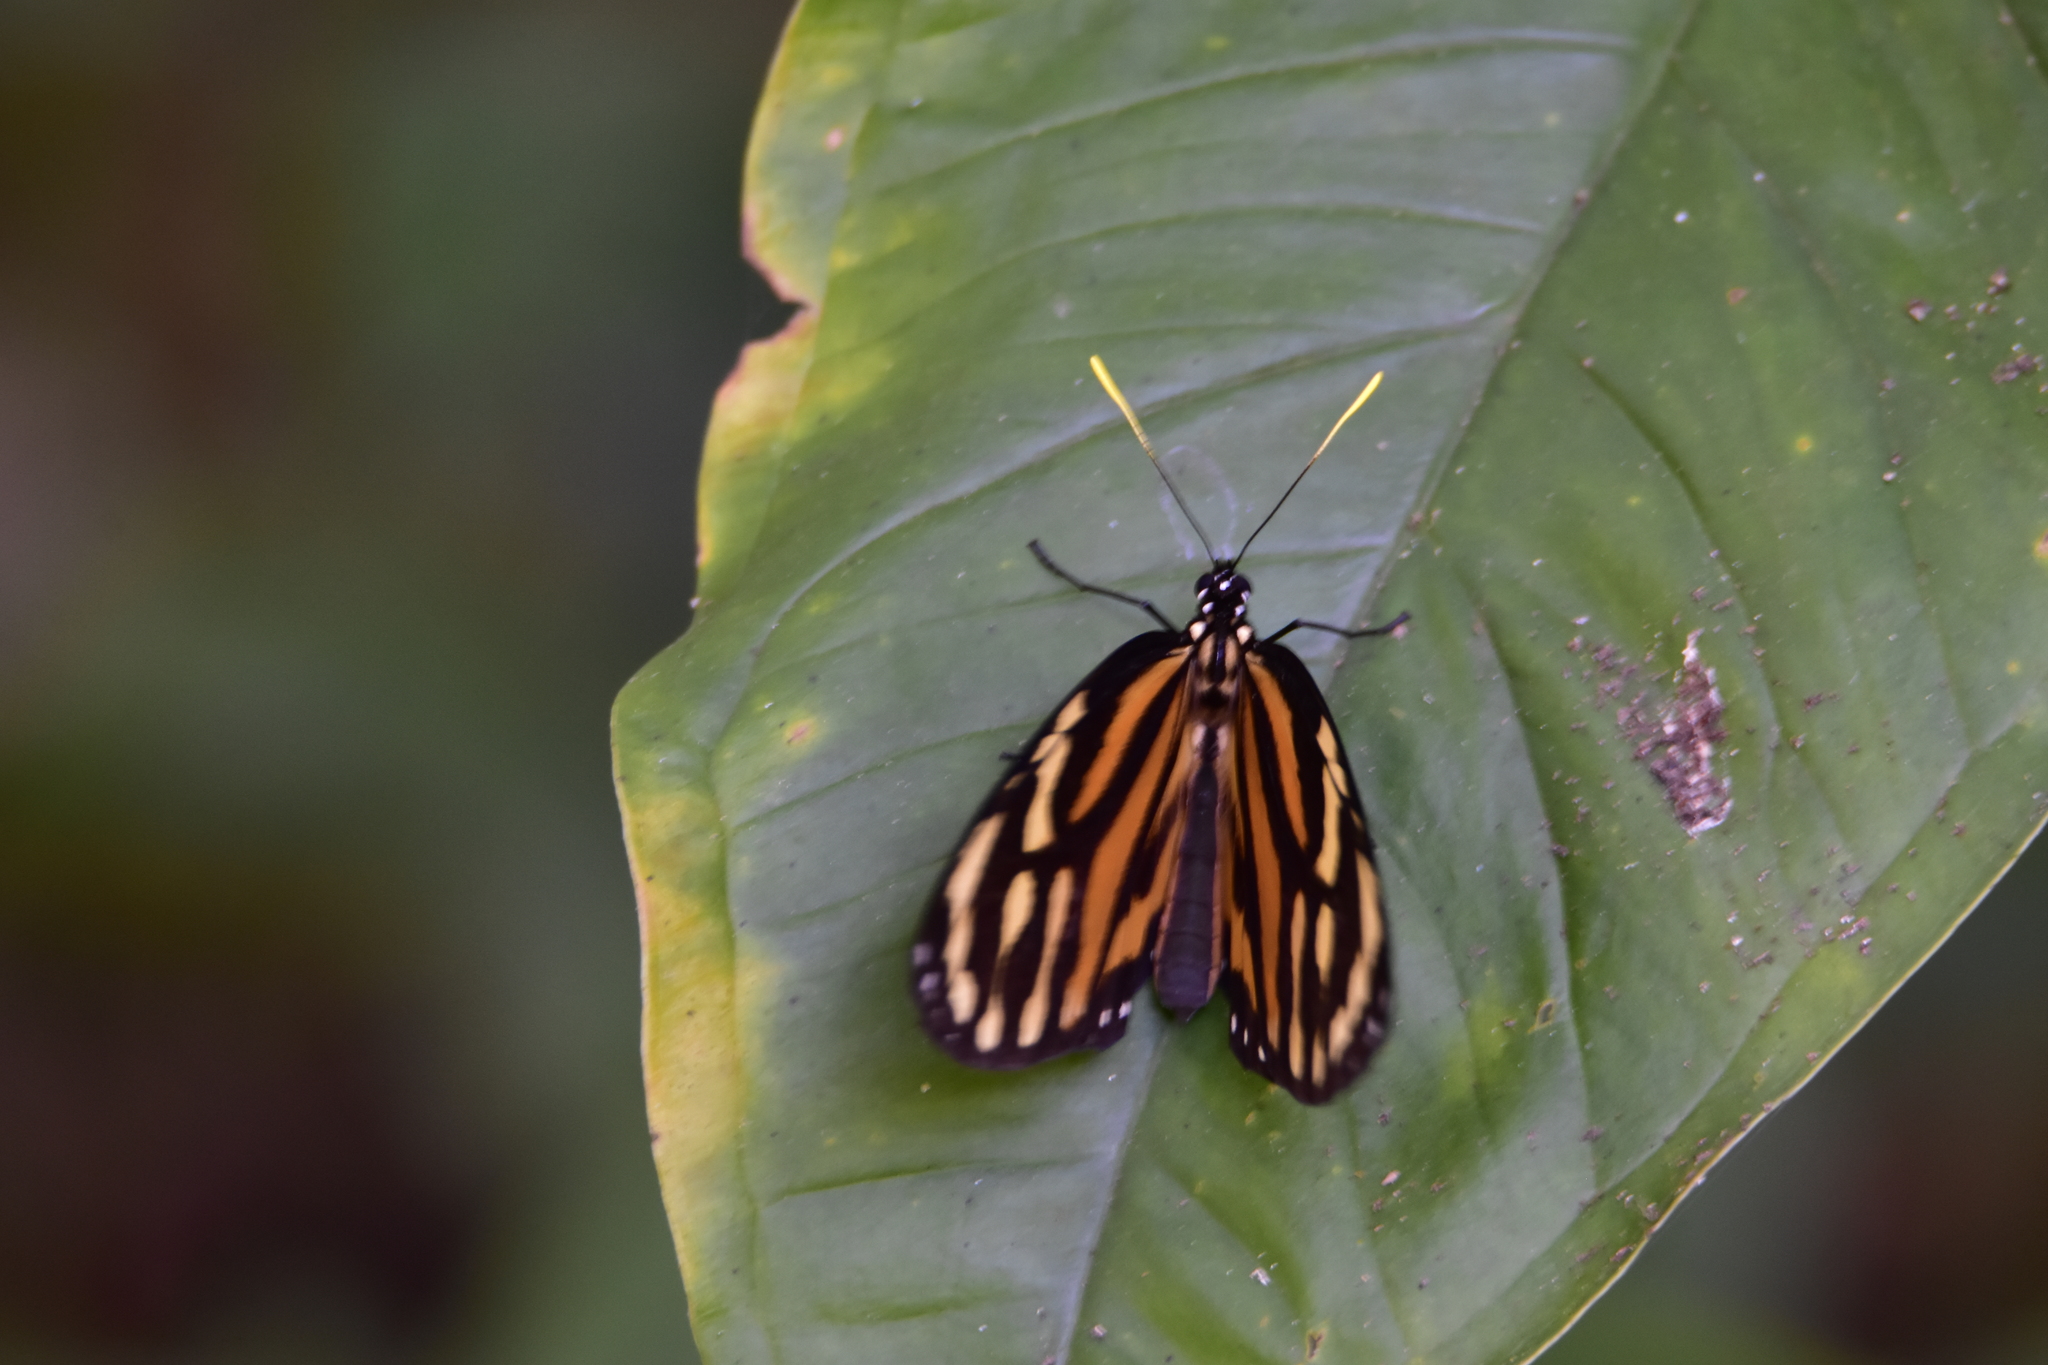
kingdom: Animalia
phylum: Arthropoda
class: Insecta
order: Lepidoptera
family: Nymphalidae
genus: Lycorea
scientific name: Lycorea cleobaea
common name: Tiger mimic-queen
